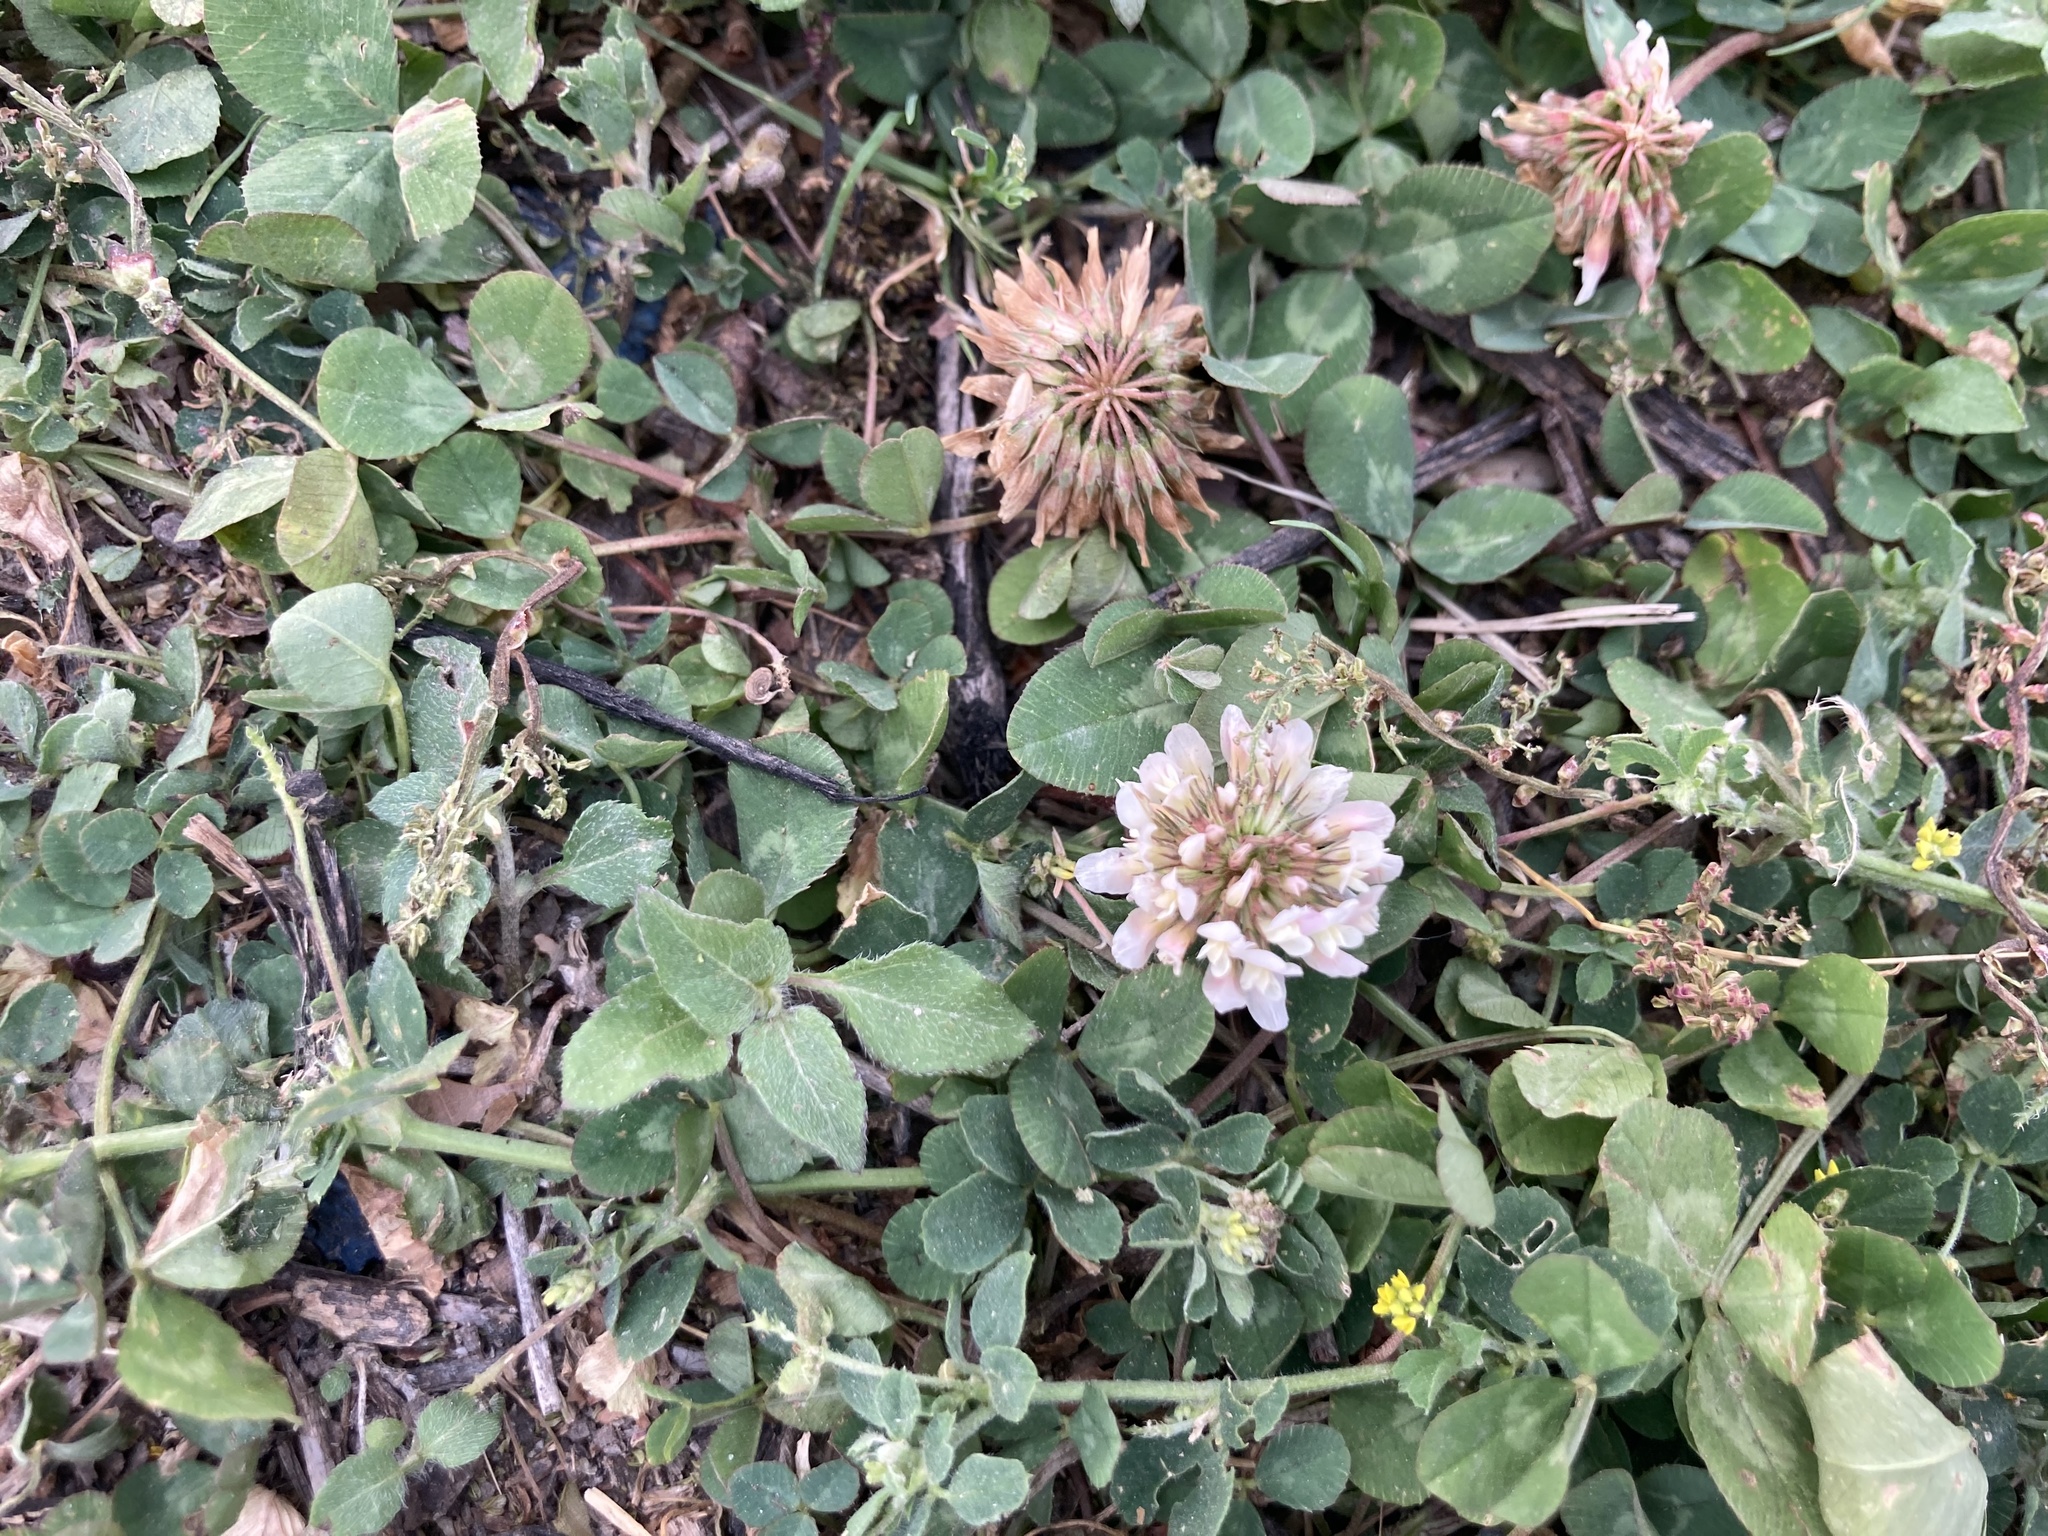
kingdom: Plantae
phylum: Tracheophyta
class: Magnoliopsida
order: Fabales
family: Fabaceae
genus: Trifolium
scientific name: Trifolium repens
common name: White clover
